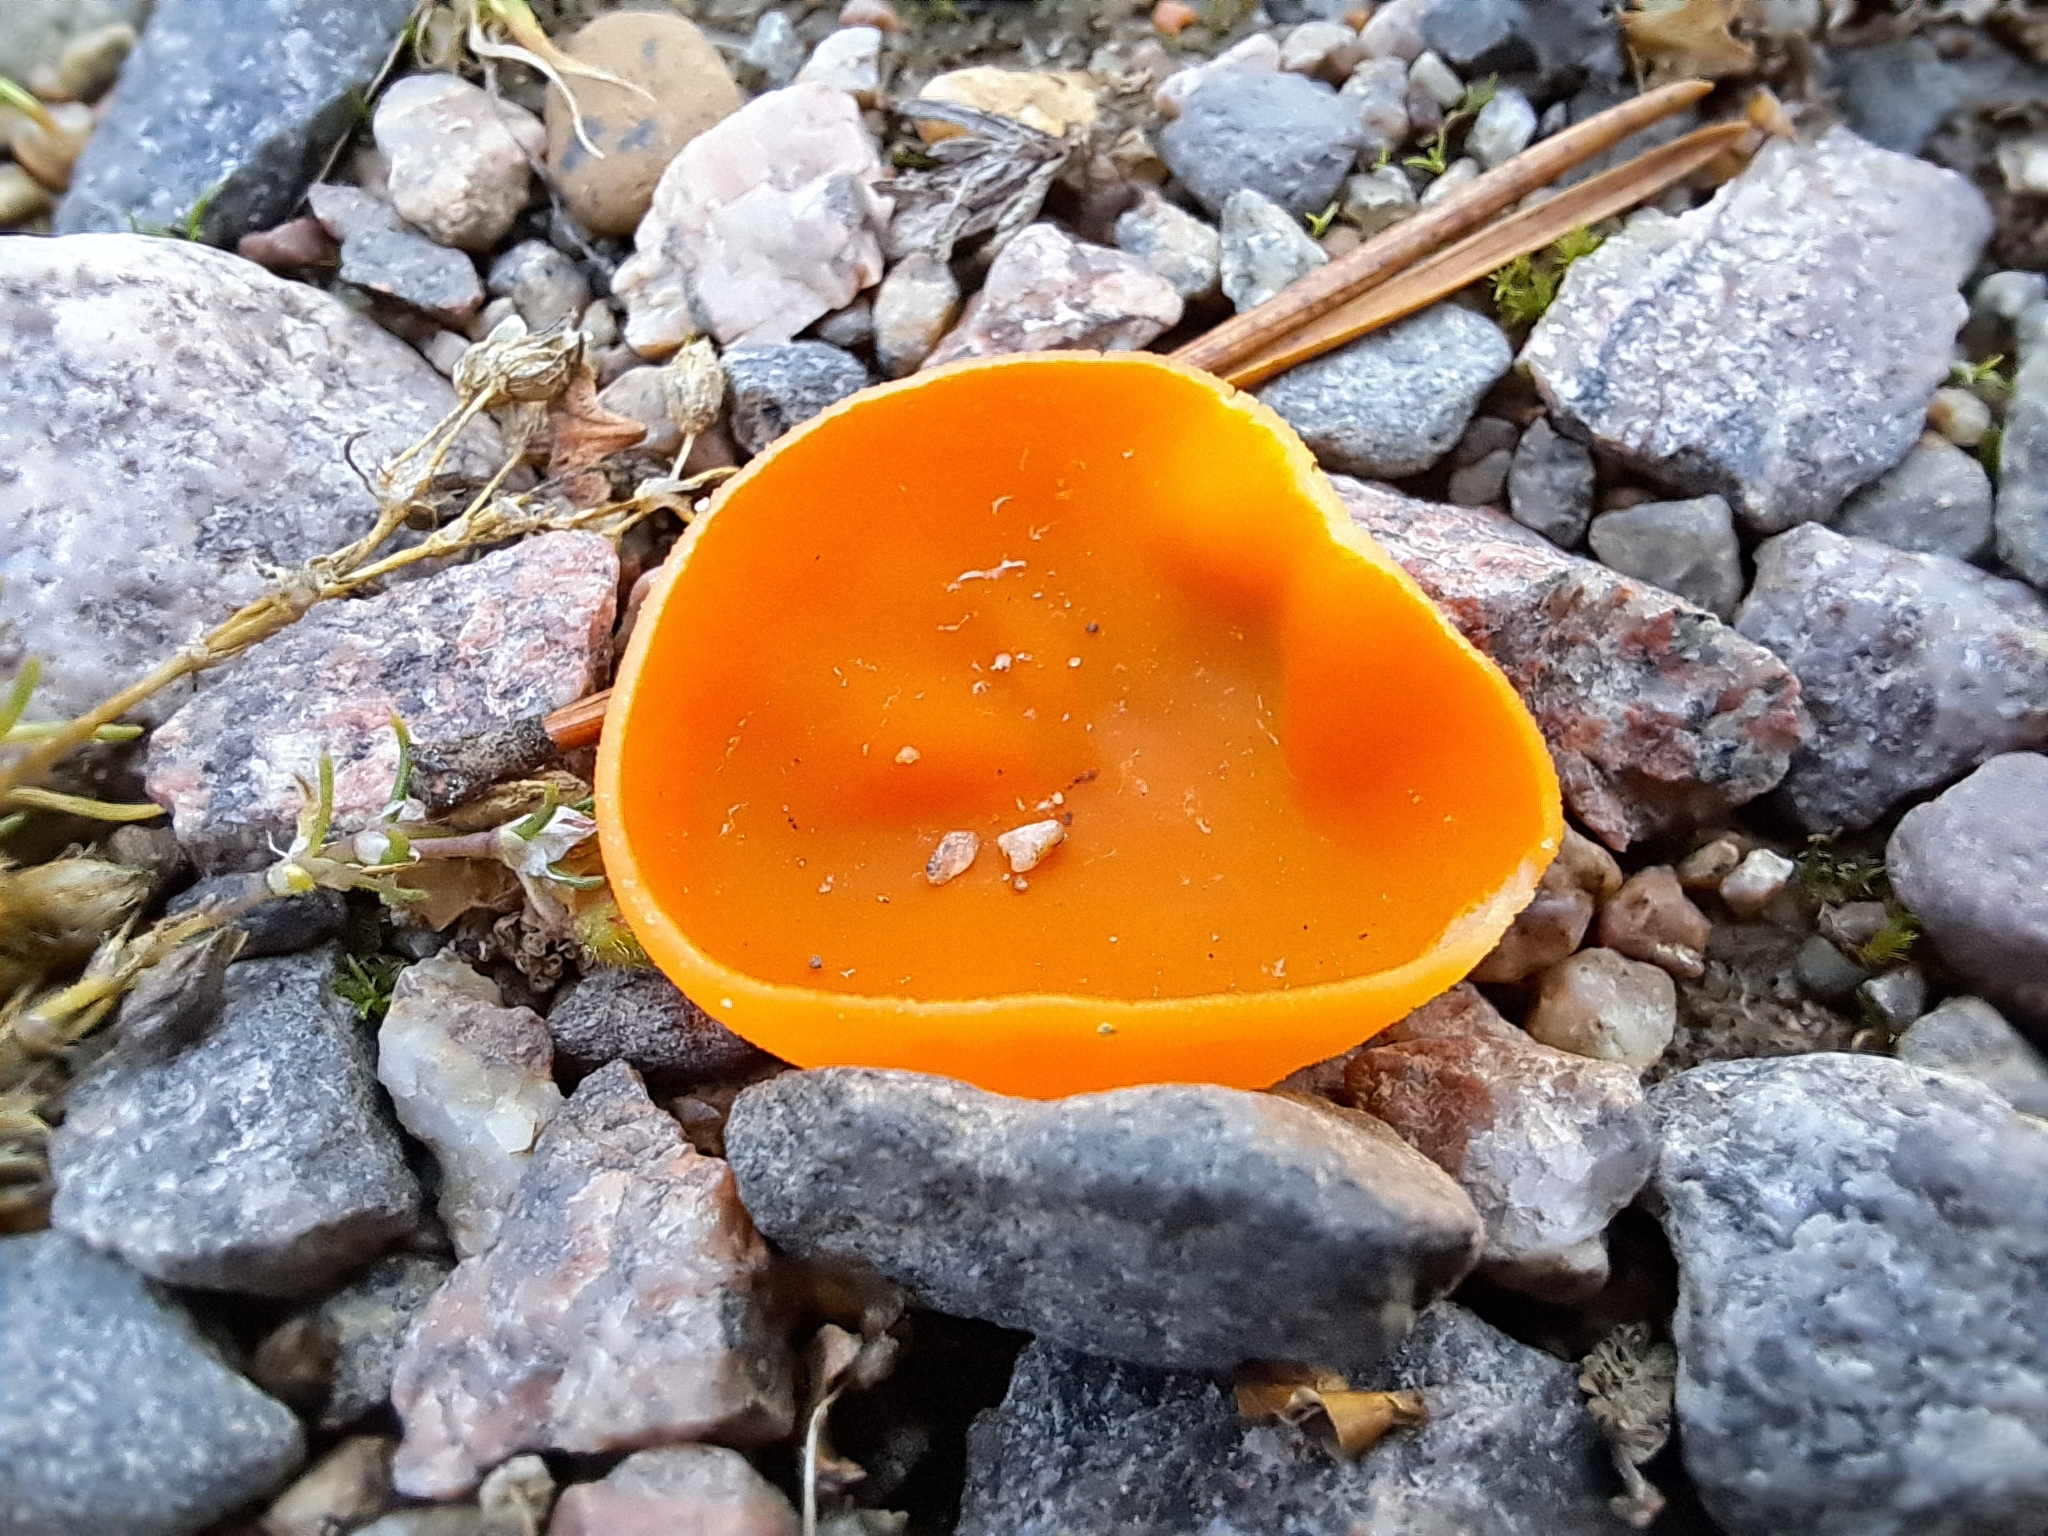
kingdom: Fungi
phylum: Ascomycota
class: Pezizomycetes
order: Pezizales
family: Pyronemataceae
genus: Aleuria
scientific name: Aleuria aurantia
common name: Orange peel fungus
